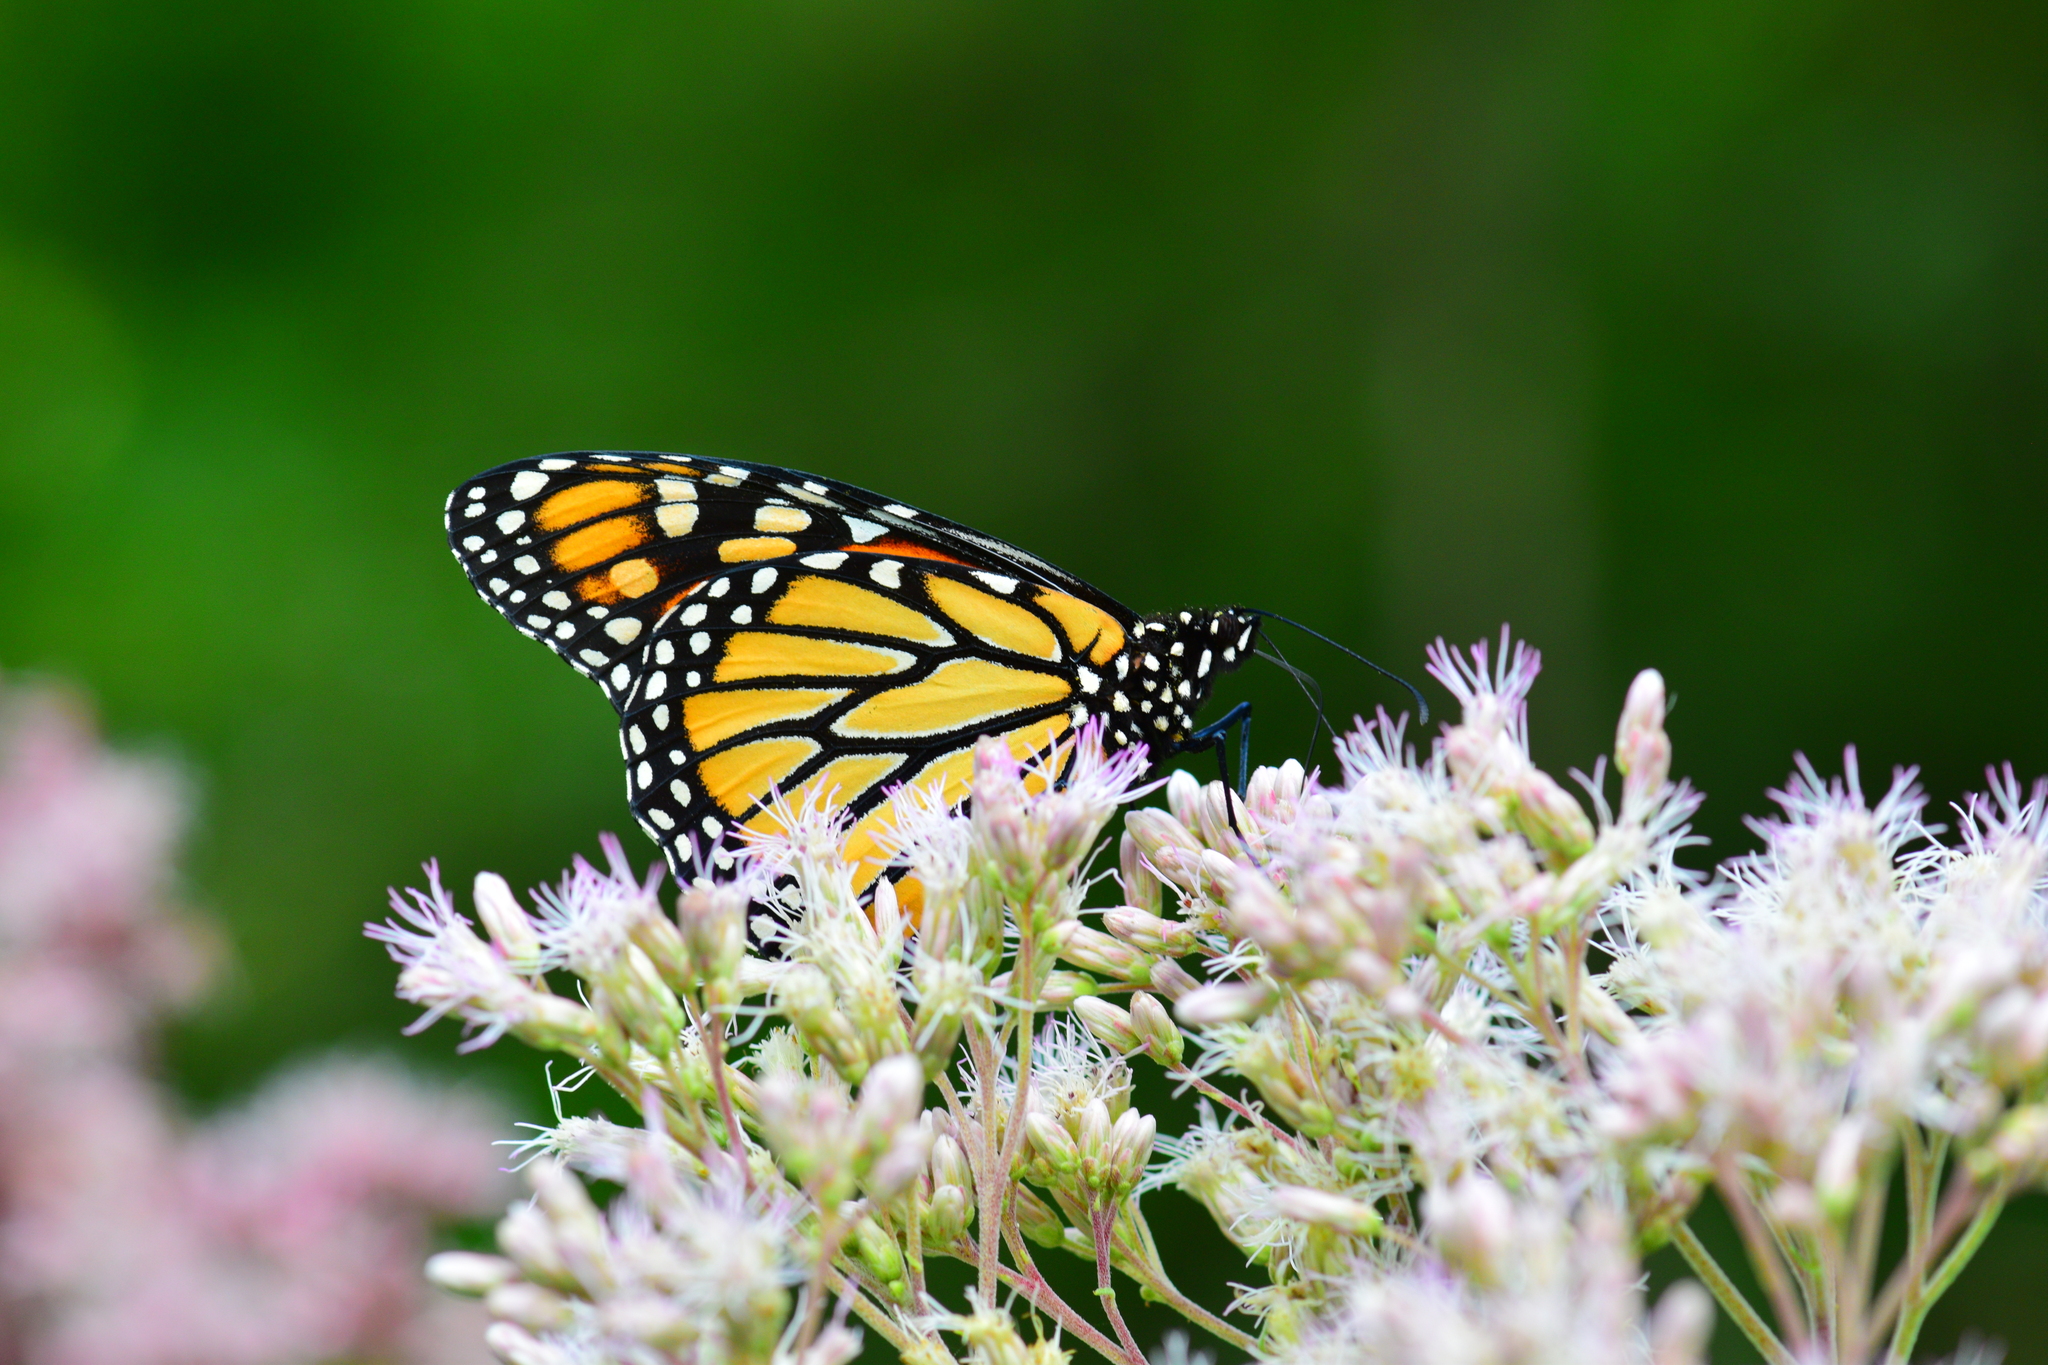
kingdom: Animalia
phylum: Arthropoda
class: Insecta
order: Lepidoptera
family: Nymphalidae
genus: Danaus
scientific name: Danaus plexippus
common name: Monarch
